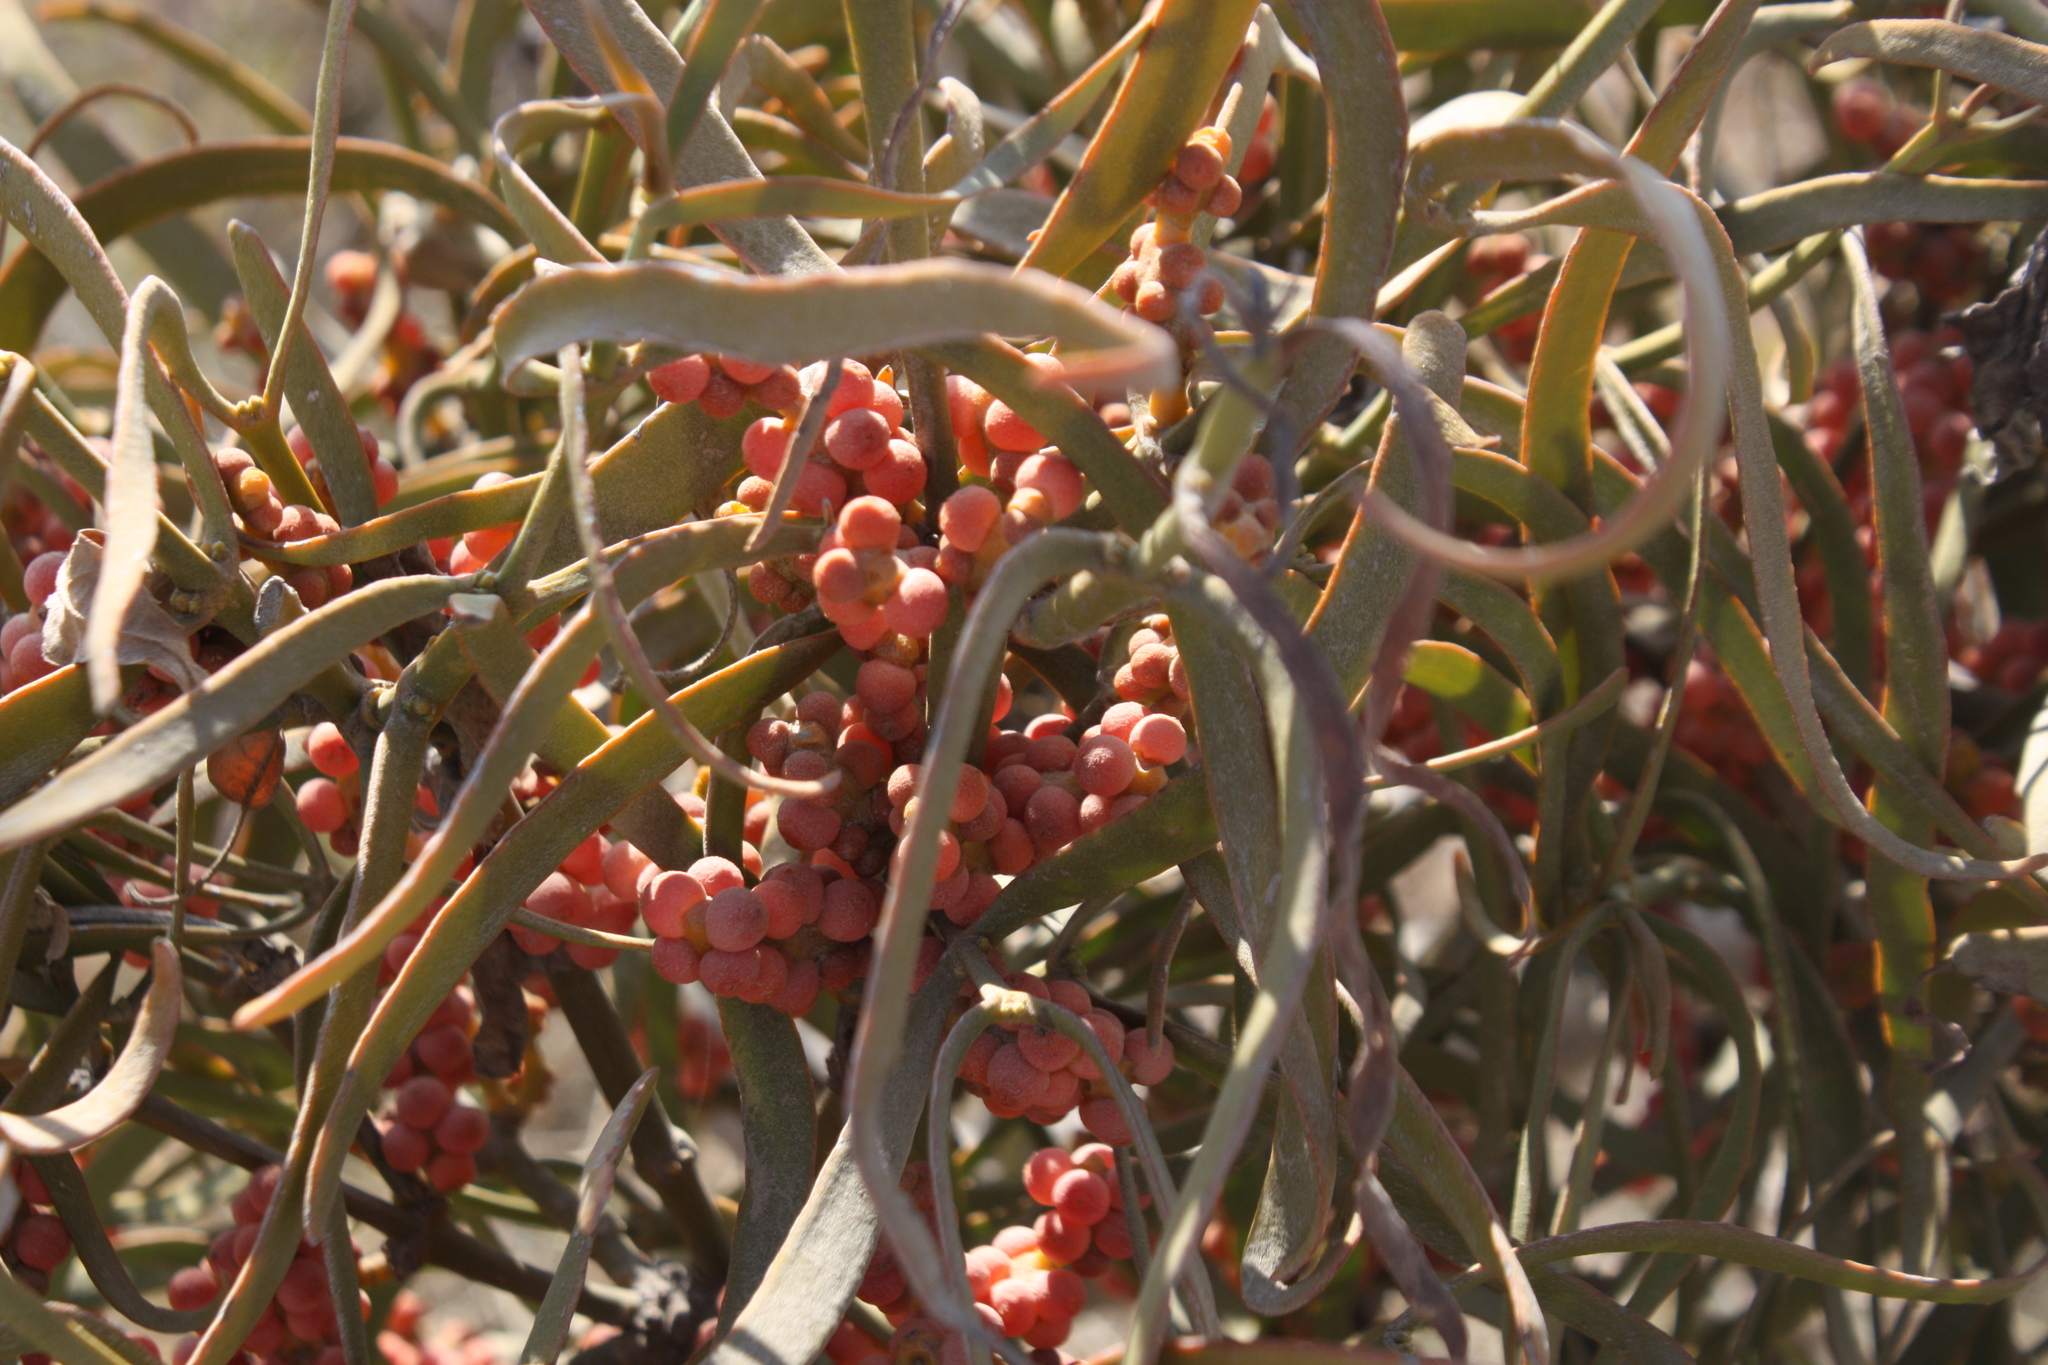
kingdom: Plantae
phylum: Tracheophyta
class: Magnoliopsida
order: Santalales
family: Viscaceae
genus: Phoradendron
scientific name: Phoradendron carneum
